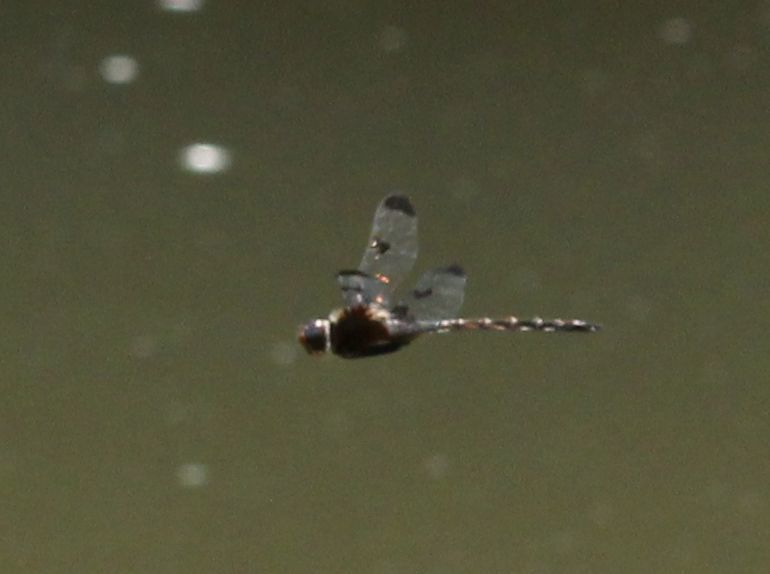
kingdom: Animalia
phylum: Arthropoda
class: Insecta
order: Odonata
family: Corduliidae
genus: Epitheca
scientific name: Epitheca princeps
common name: Prince baskettail
